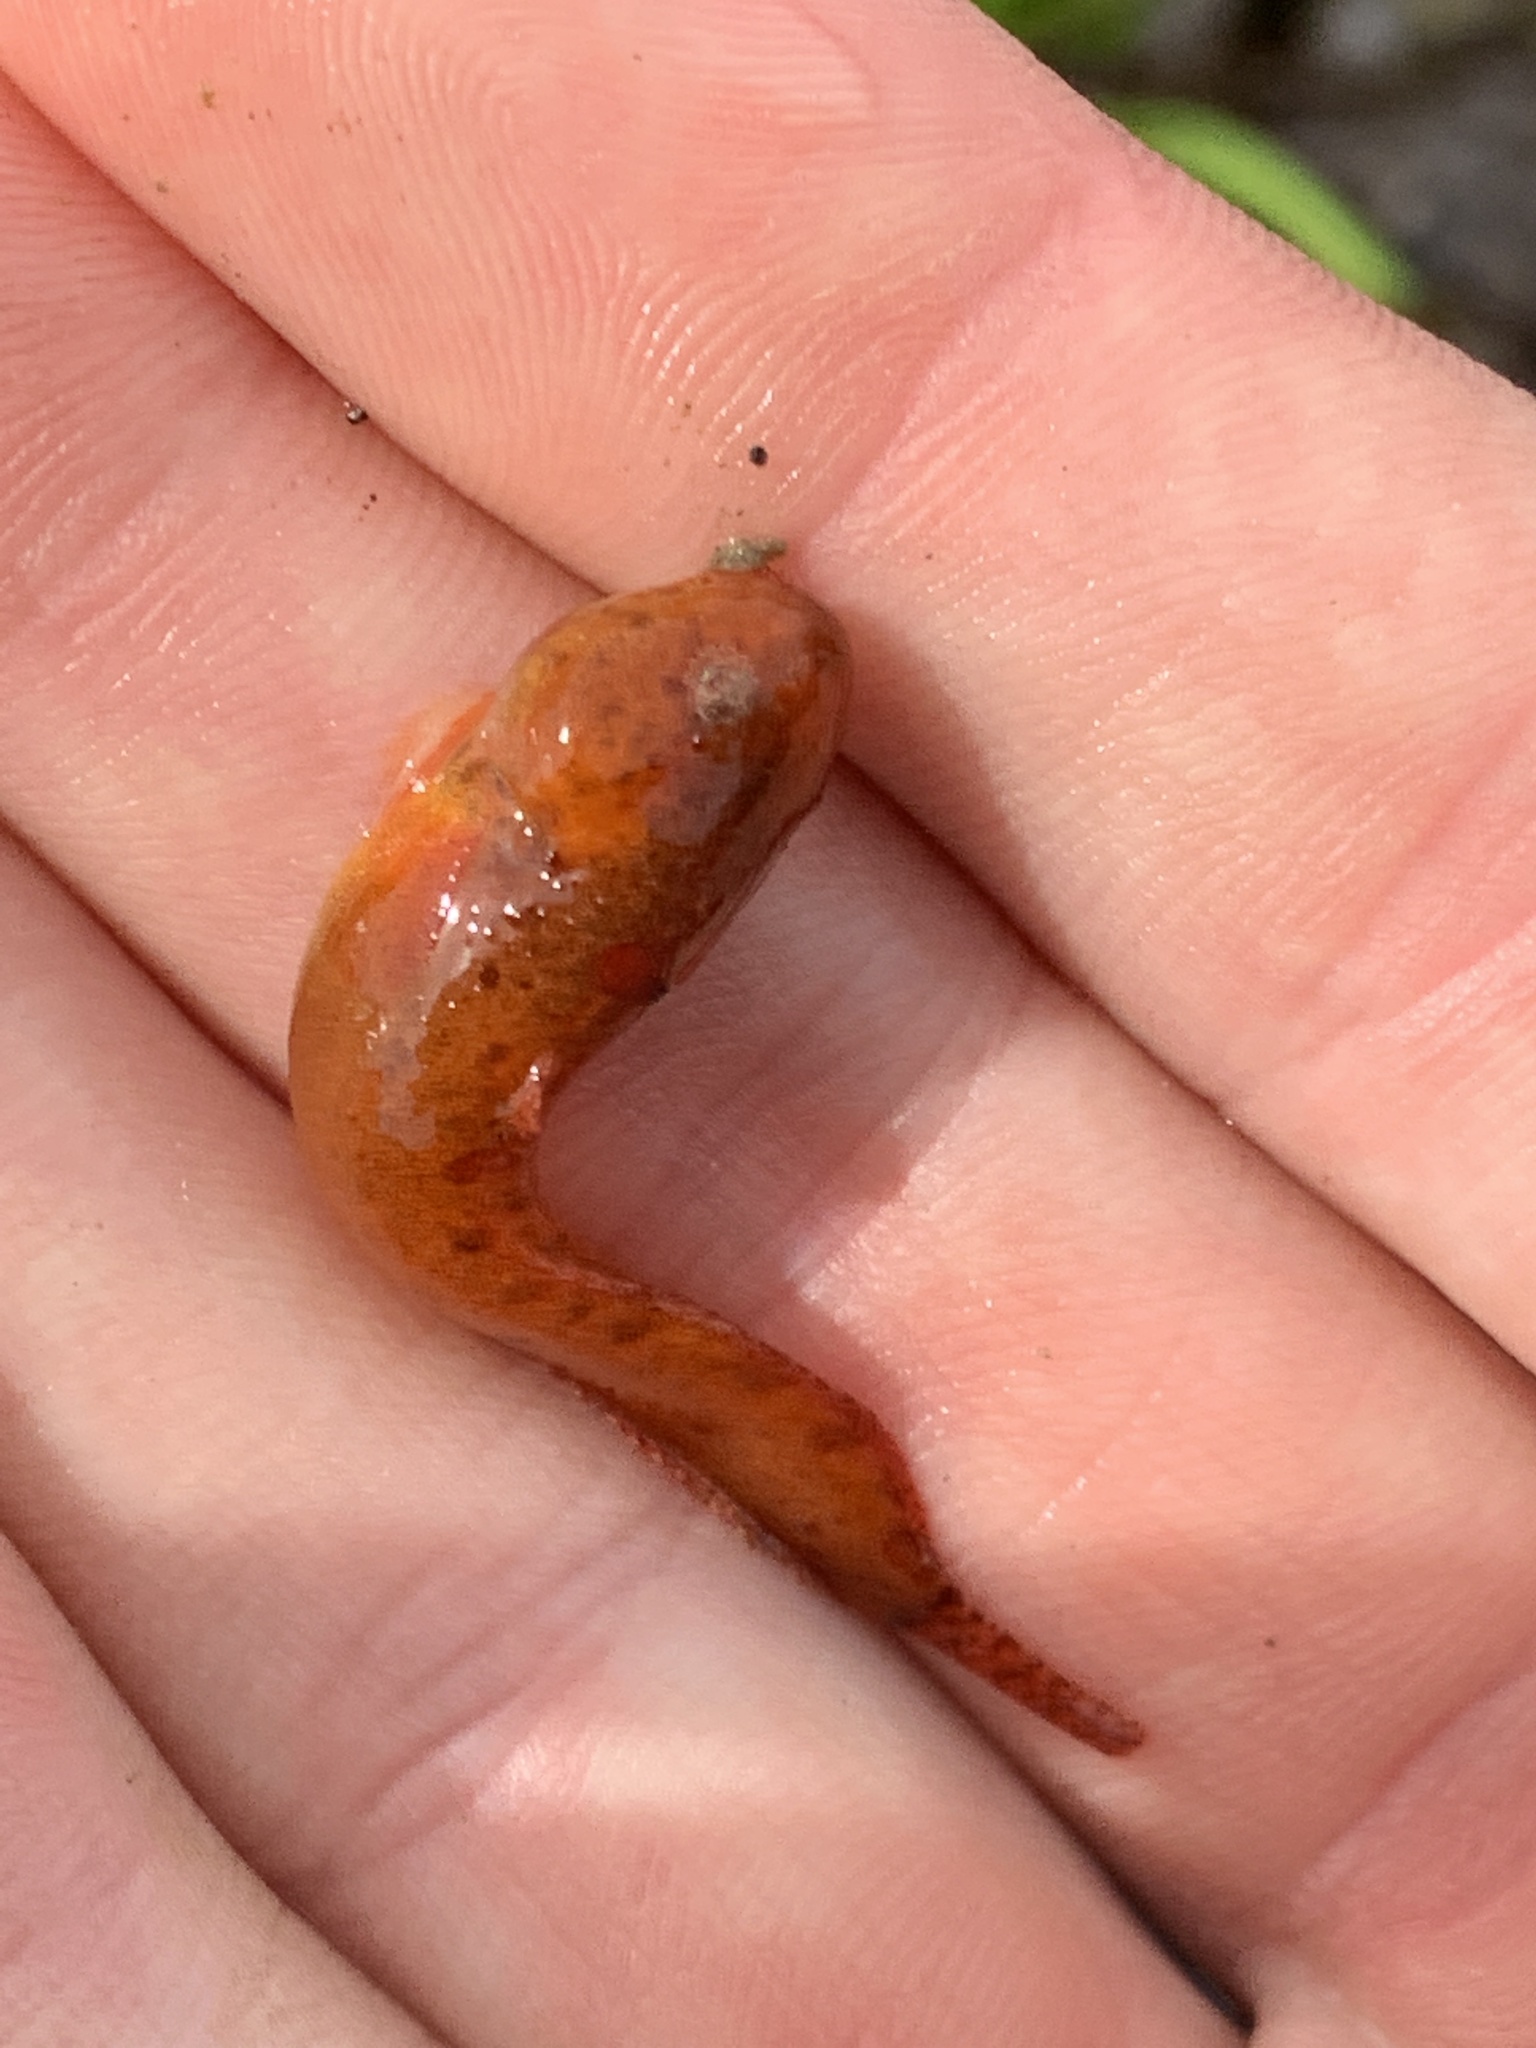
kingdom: Animalia
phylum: Chordata
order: Scorpaeniformes
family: Liparidae
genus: Liparis
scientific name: Liparis mucosus
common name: Slimy snailfish
